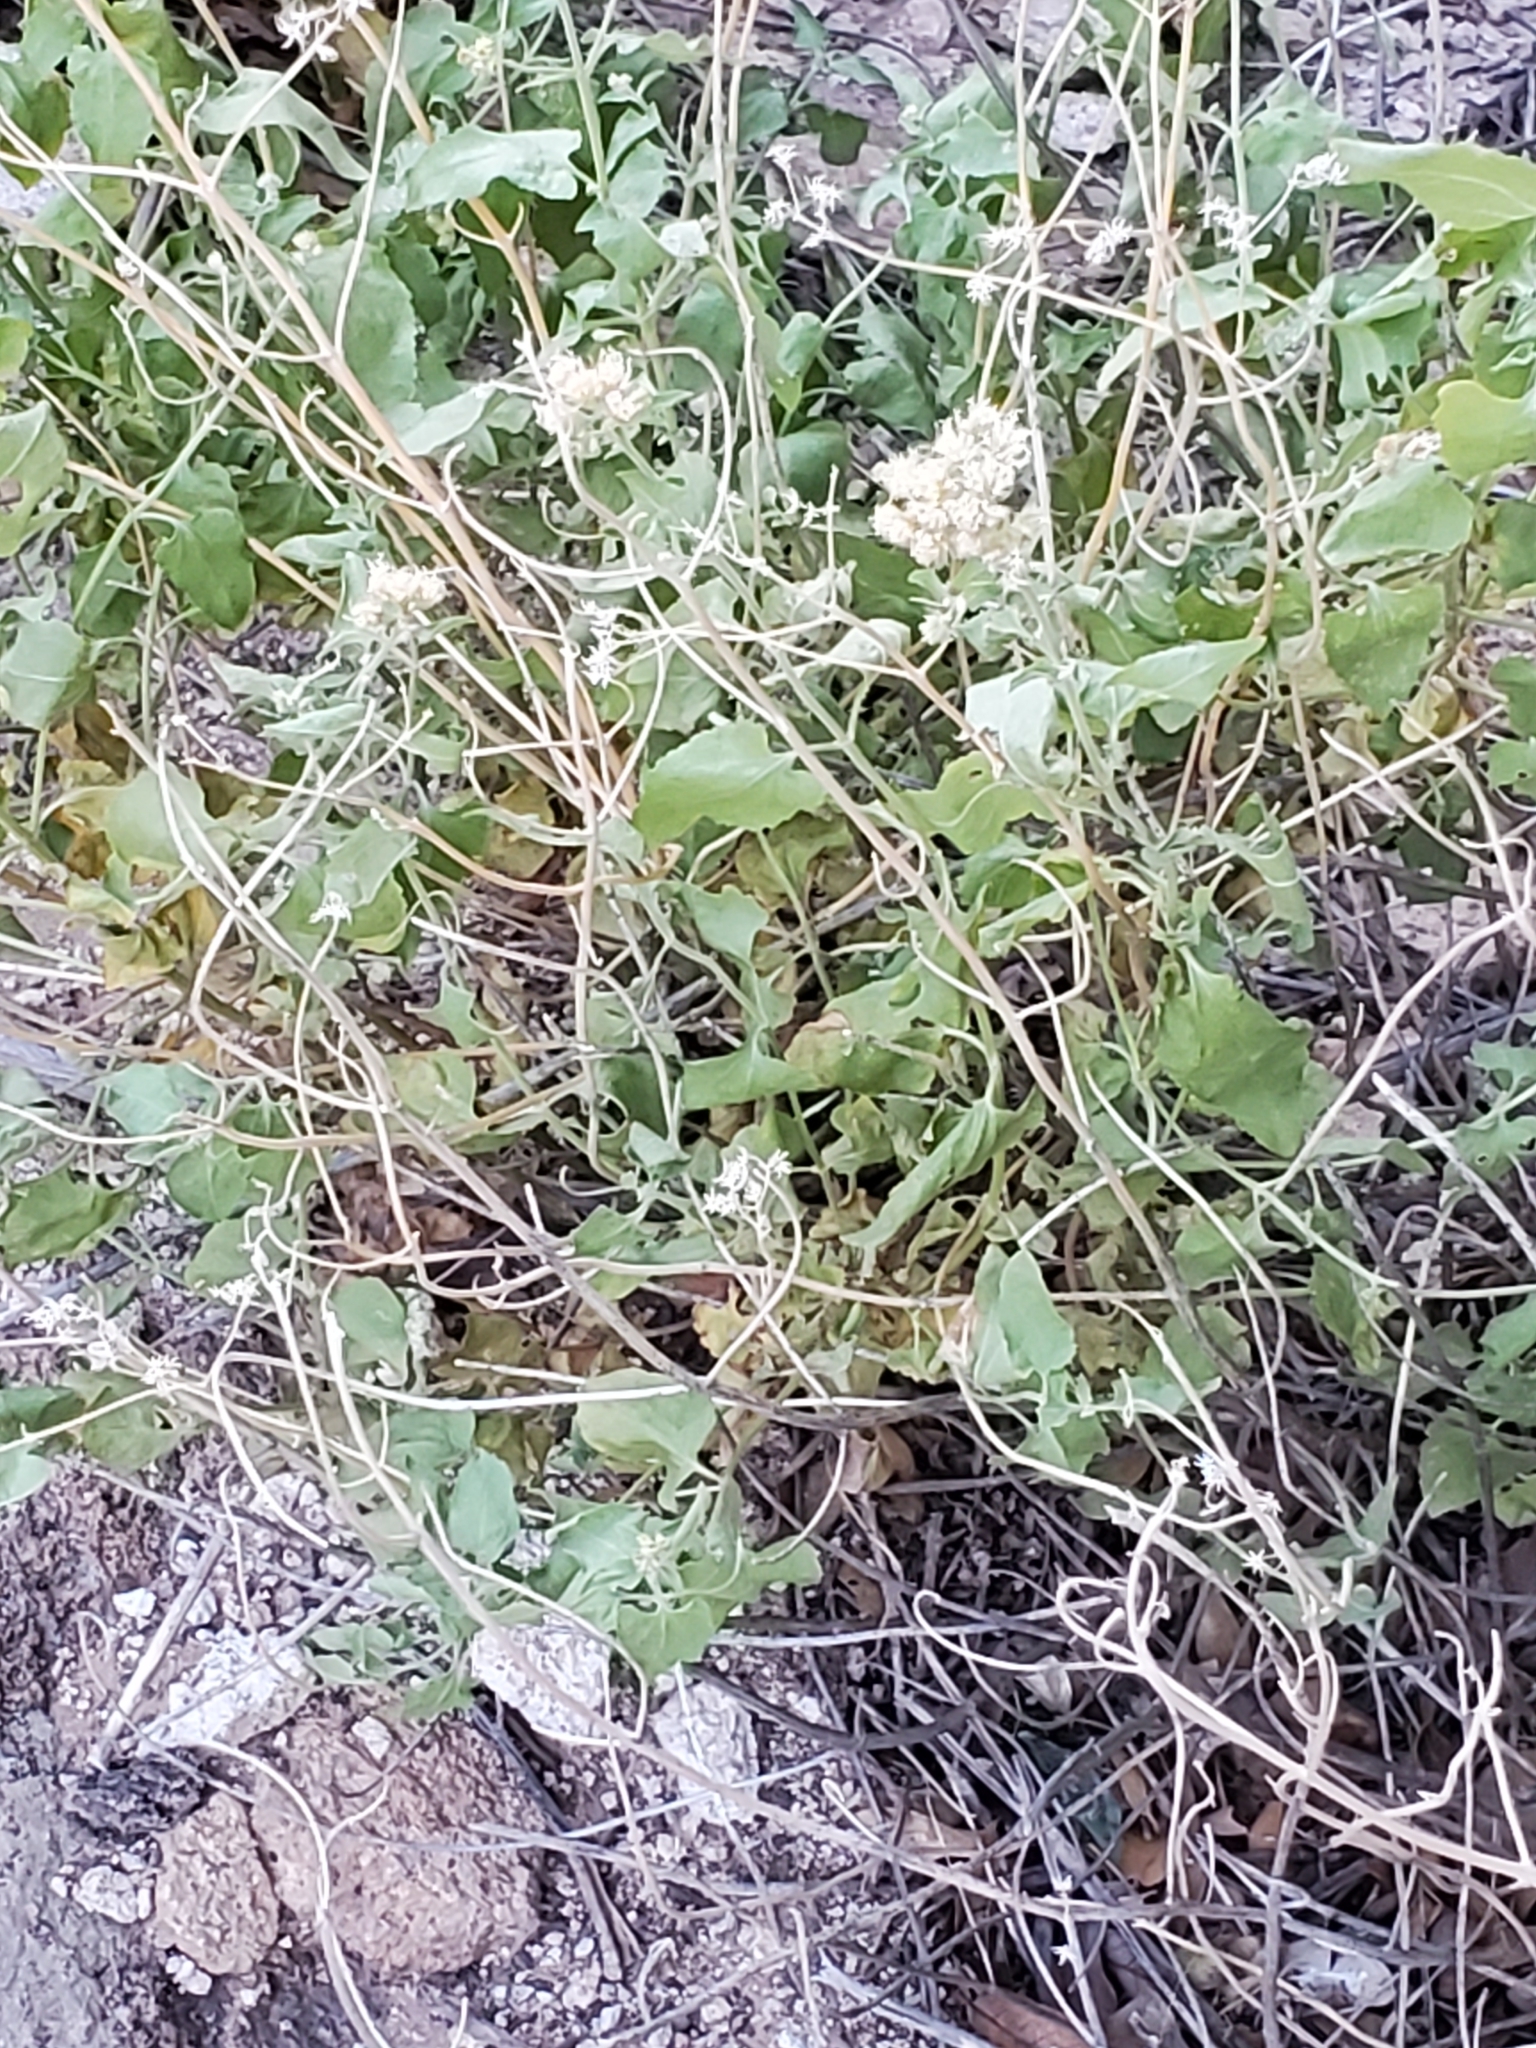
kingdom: Plantae
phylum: Tracheophyta
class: Magnoliopsida
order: Asterales
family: Asteraceae
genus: Ageratina
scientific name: Ageratina herbacea
